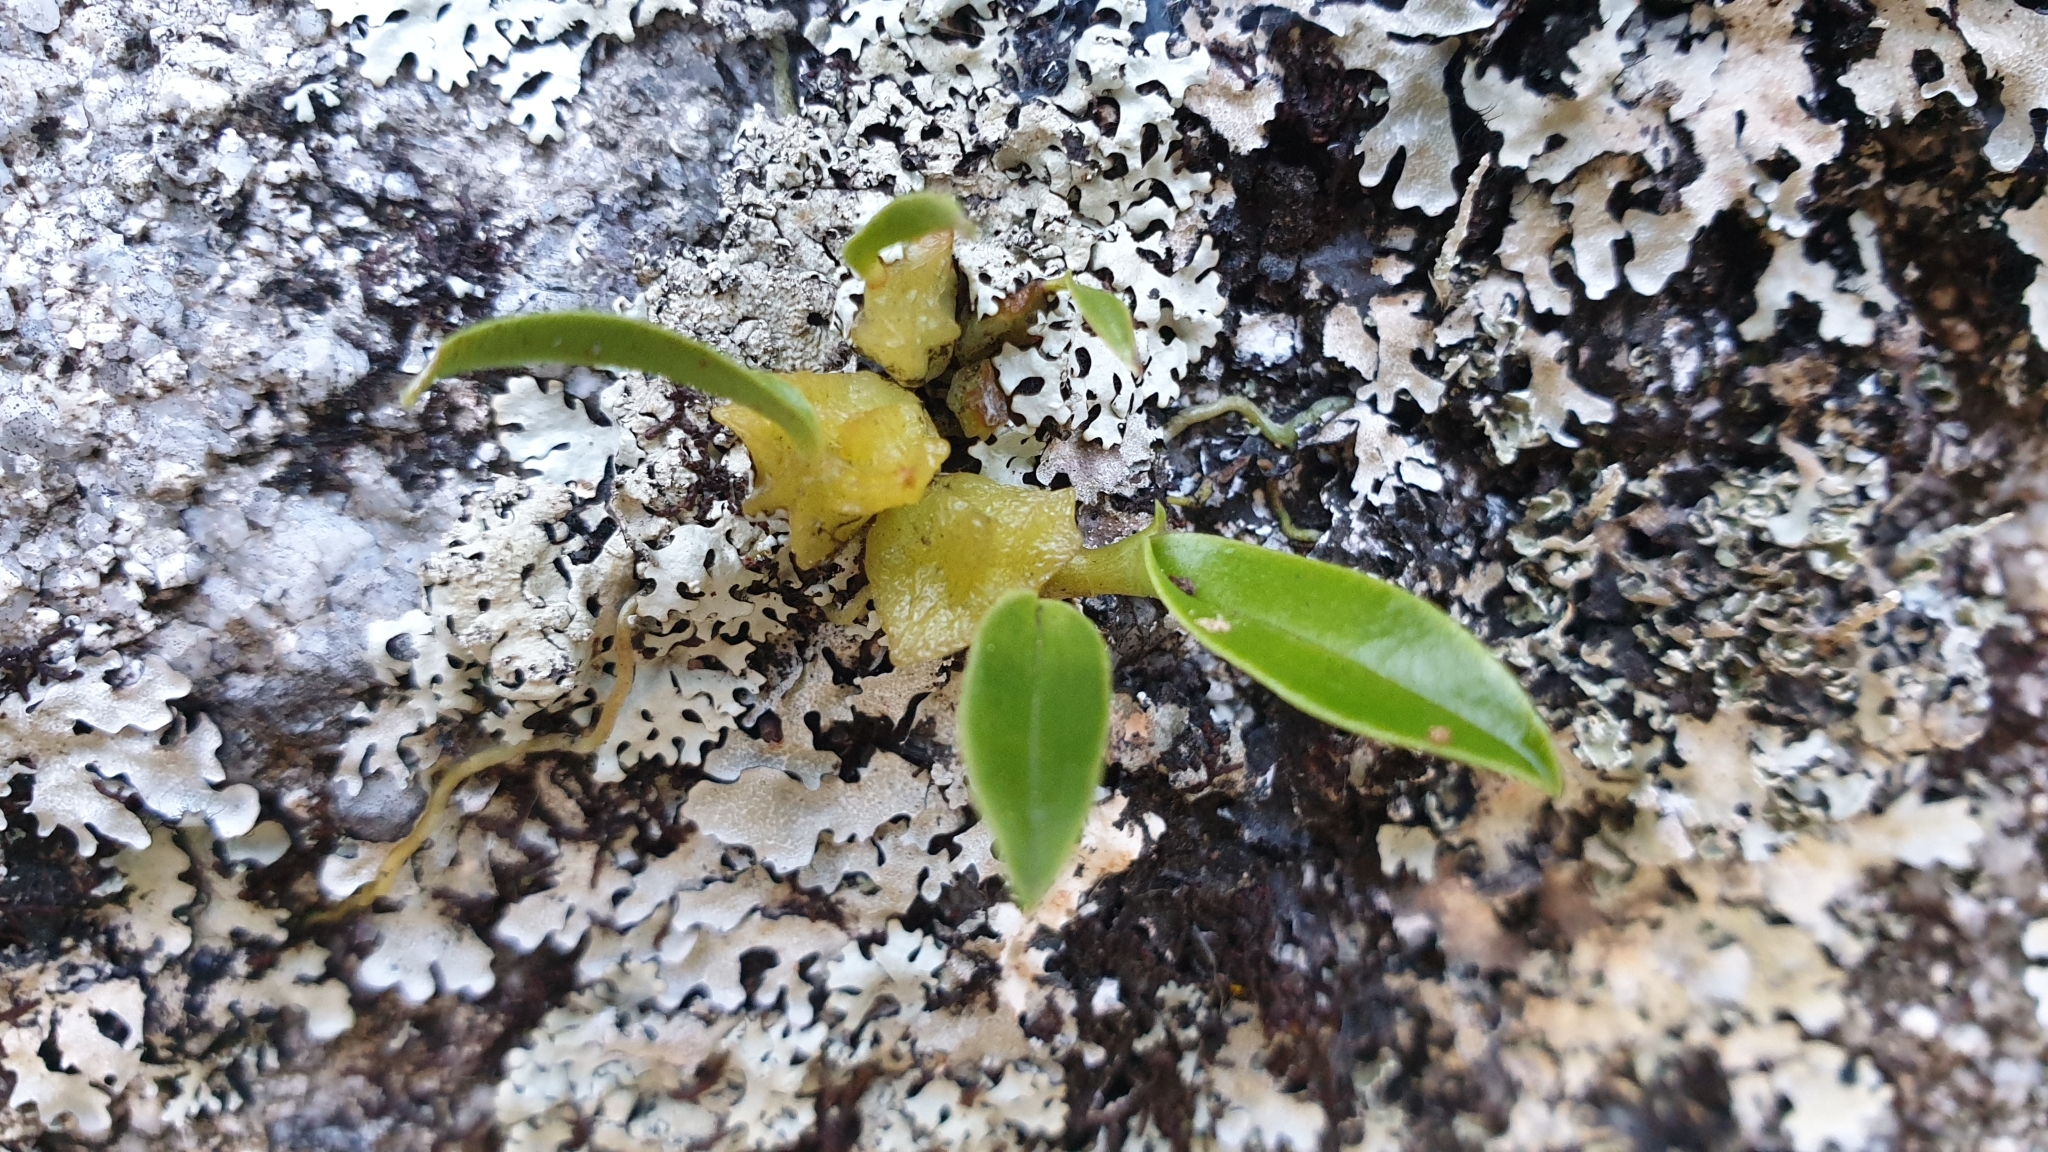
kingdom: Plantae
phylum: Tracheophyta
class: Liliopsida
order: Asparagales
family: Orchidaceae
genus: Bulbophyllum
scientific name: Bulbophyllum elisae
